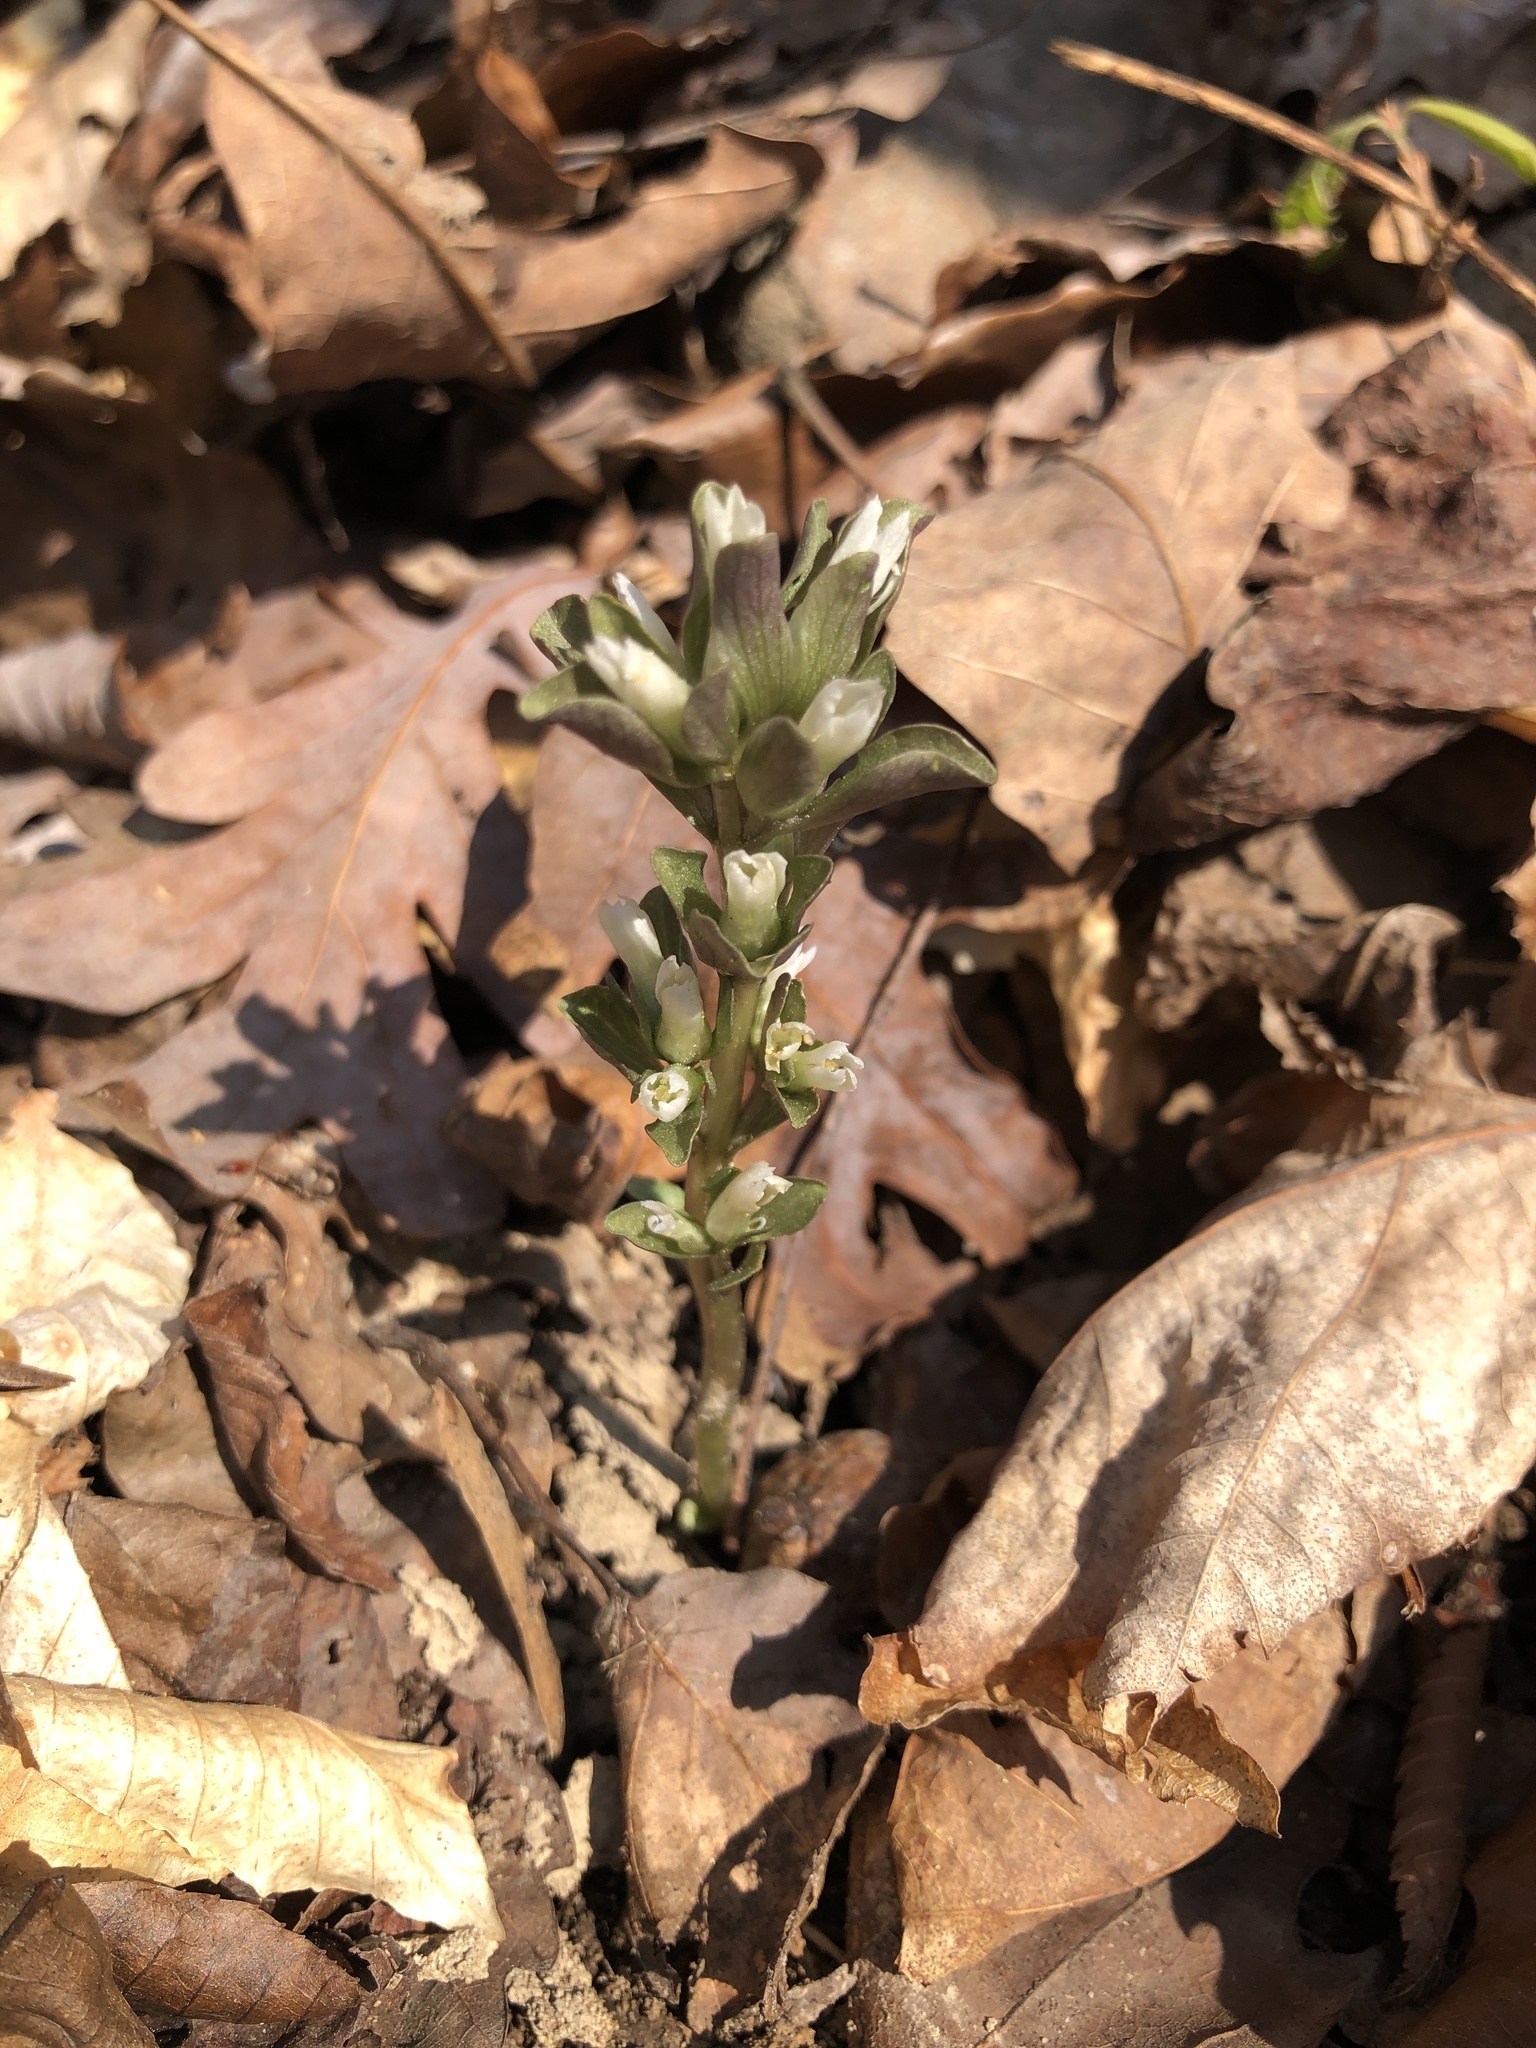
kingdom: Plantae
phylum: Tracheophyta
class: Magnoliopsida
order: Gentianales
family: Gentianaceae
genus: Obolaria
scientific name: Obolaria virginica
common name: Pennywort
